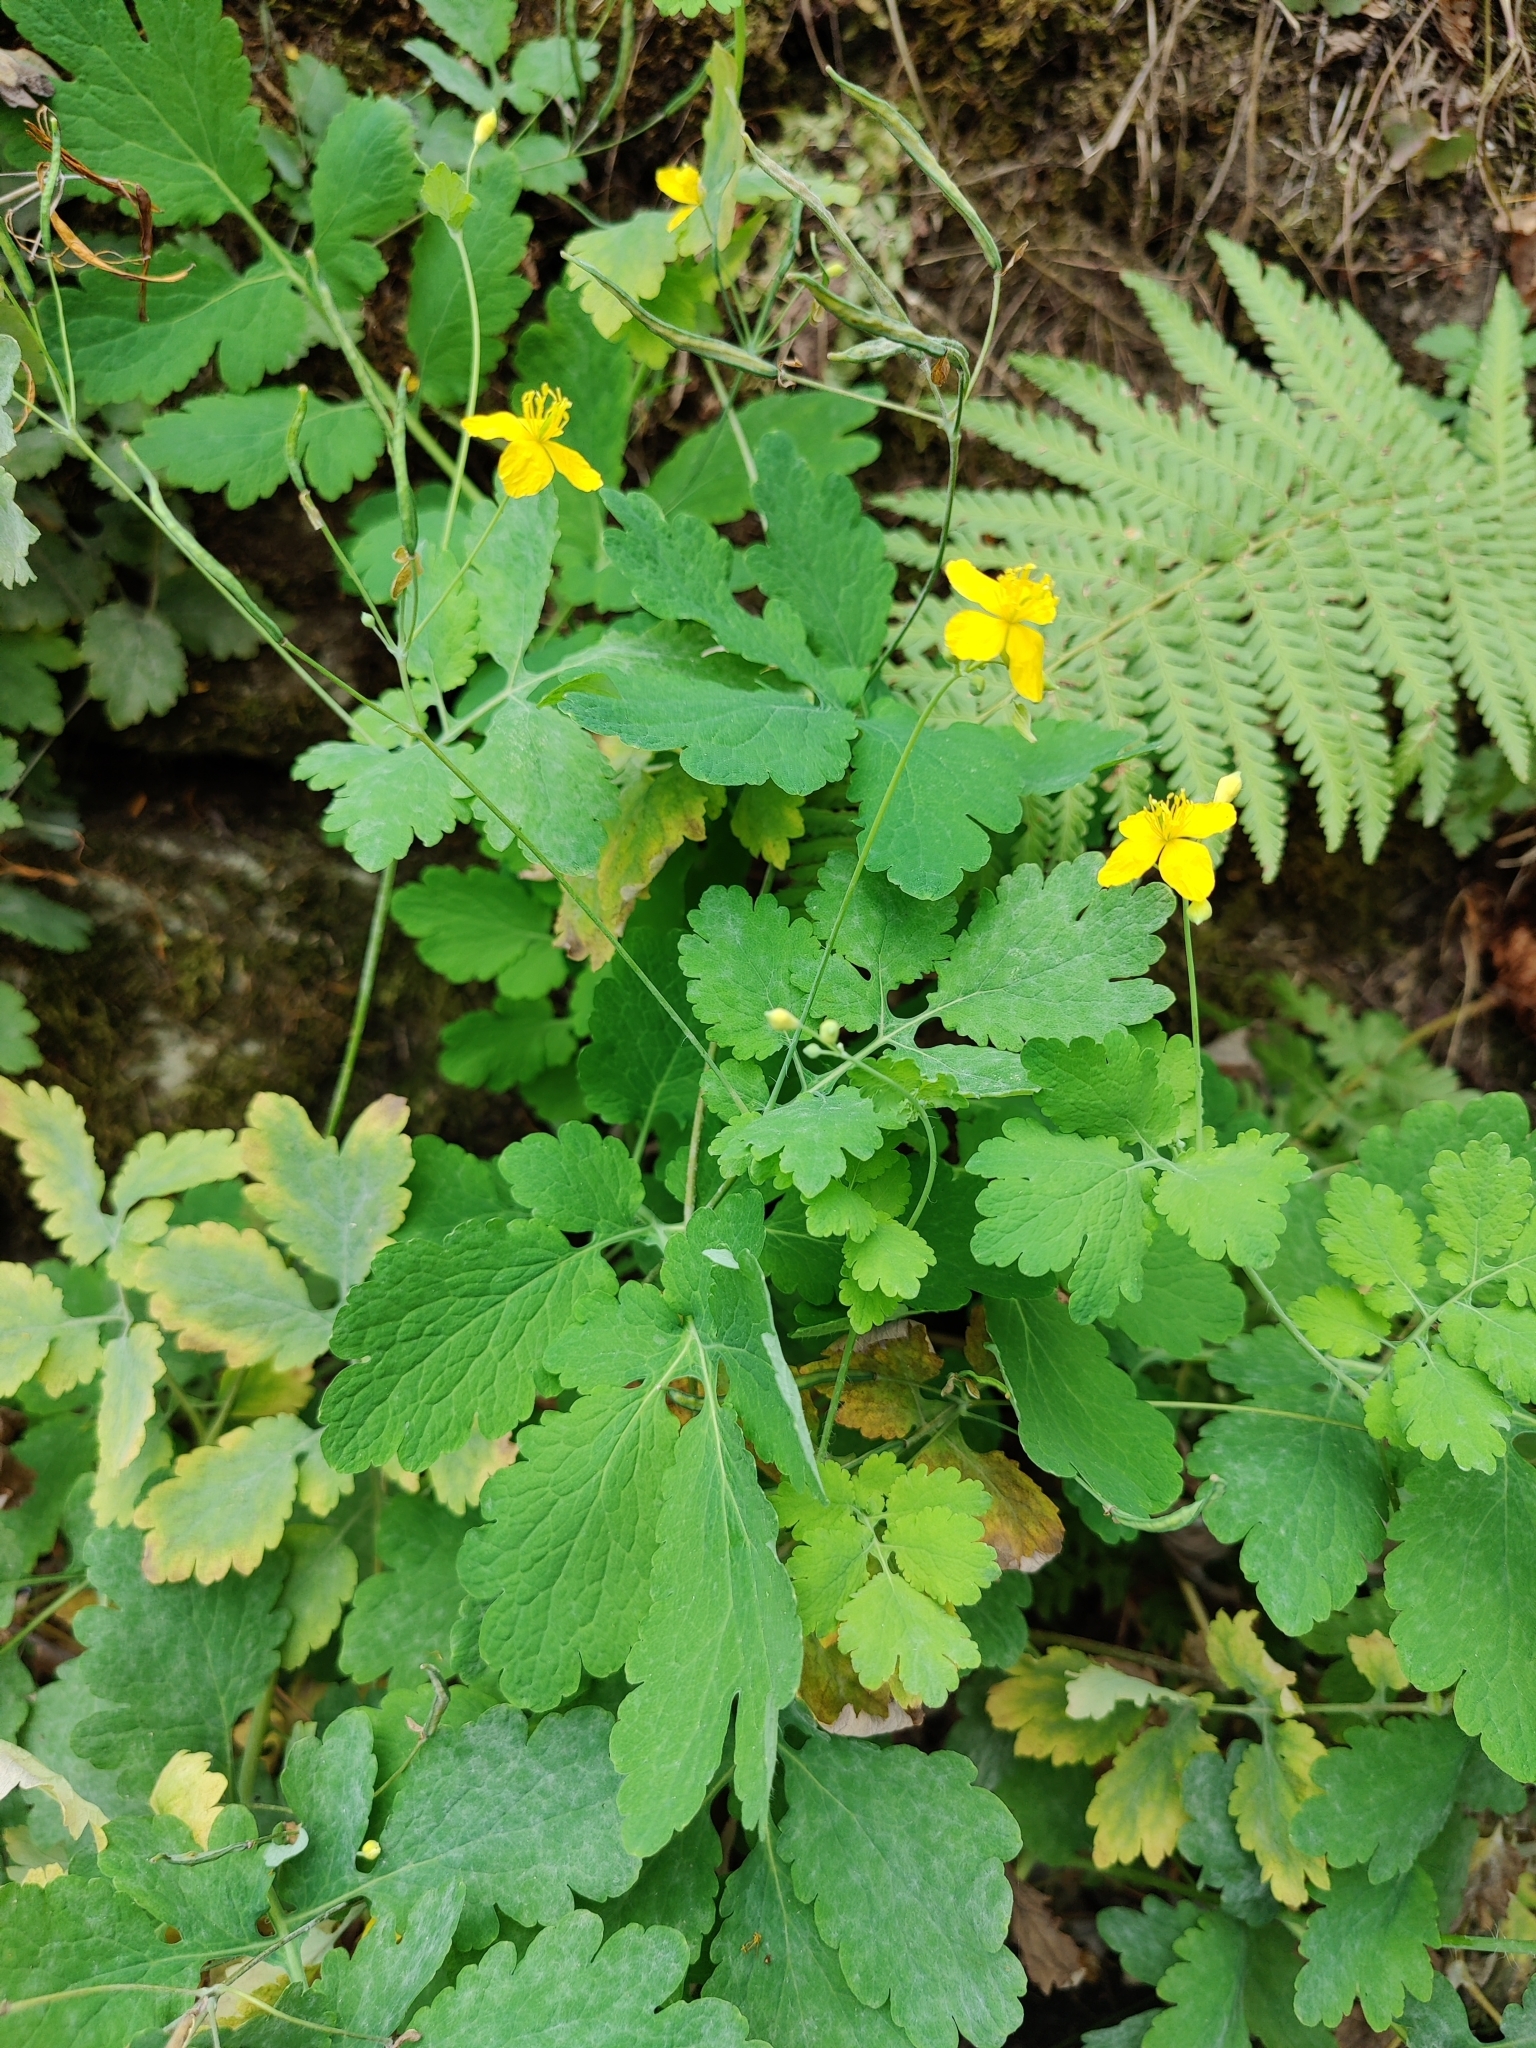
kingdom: Plantae
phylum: Tracheophyta
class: Magnoliopsida
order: Ranunculales
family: Papaveraceae
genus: Chelidonium
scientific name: Chelidonium majus
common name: Greater celandine
